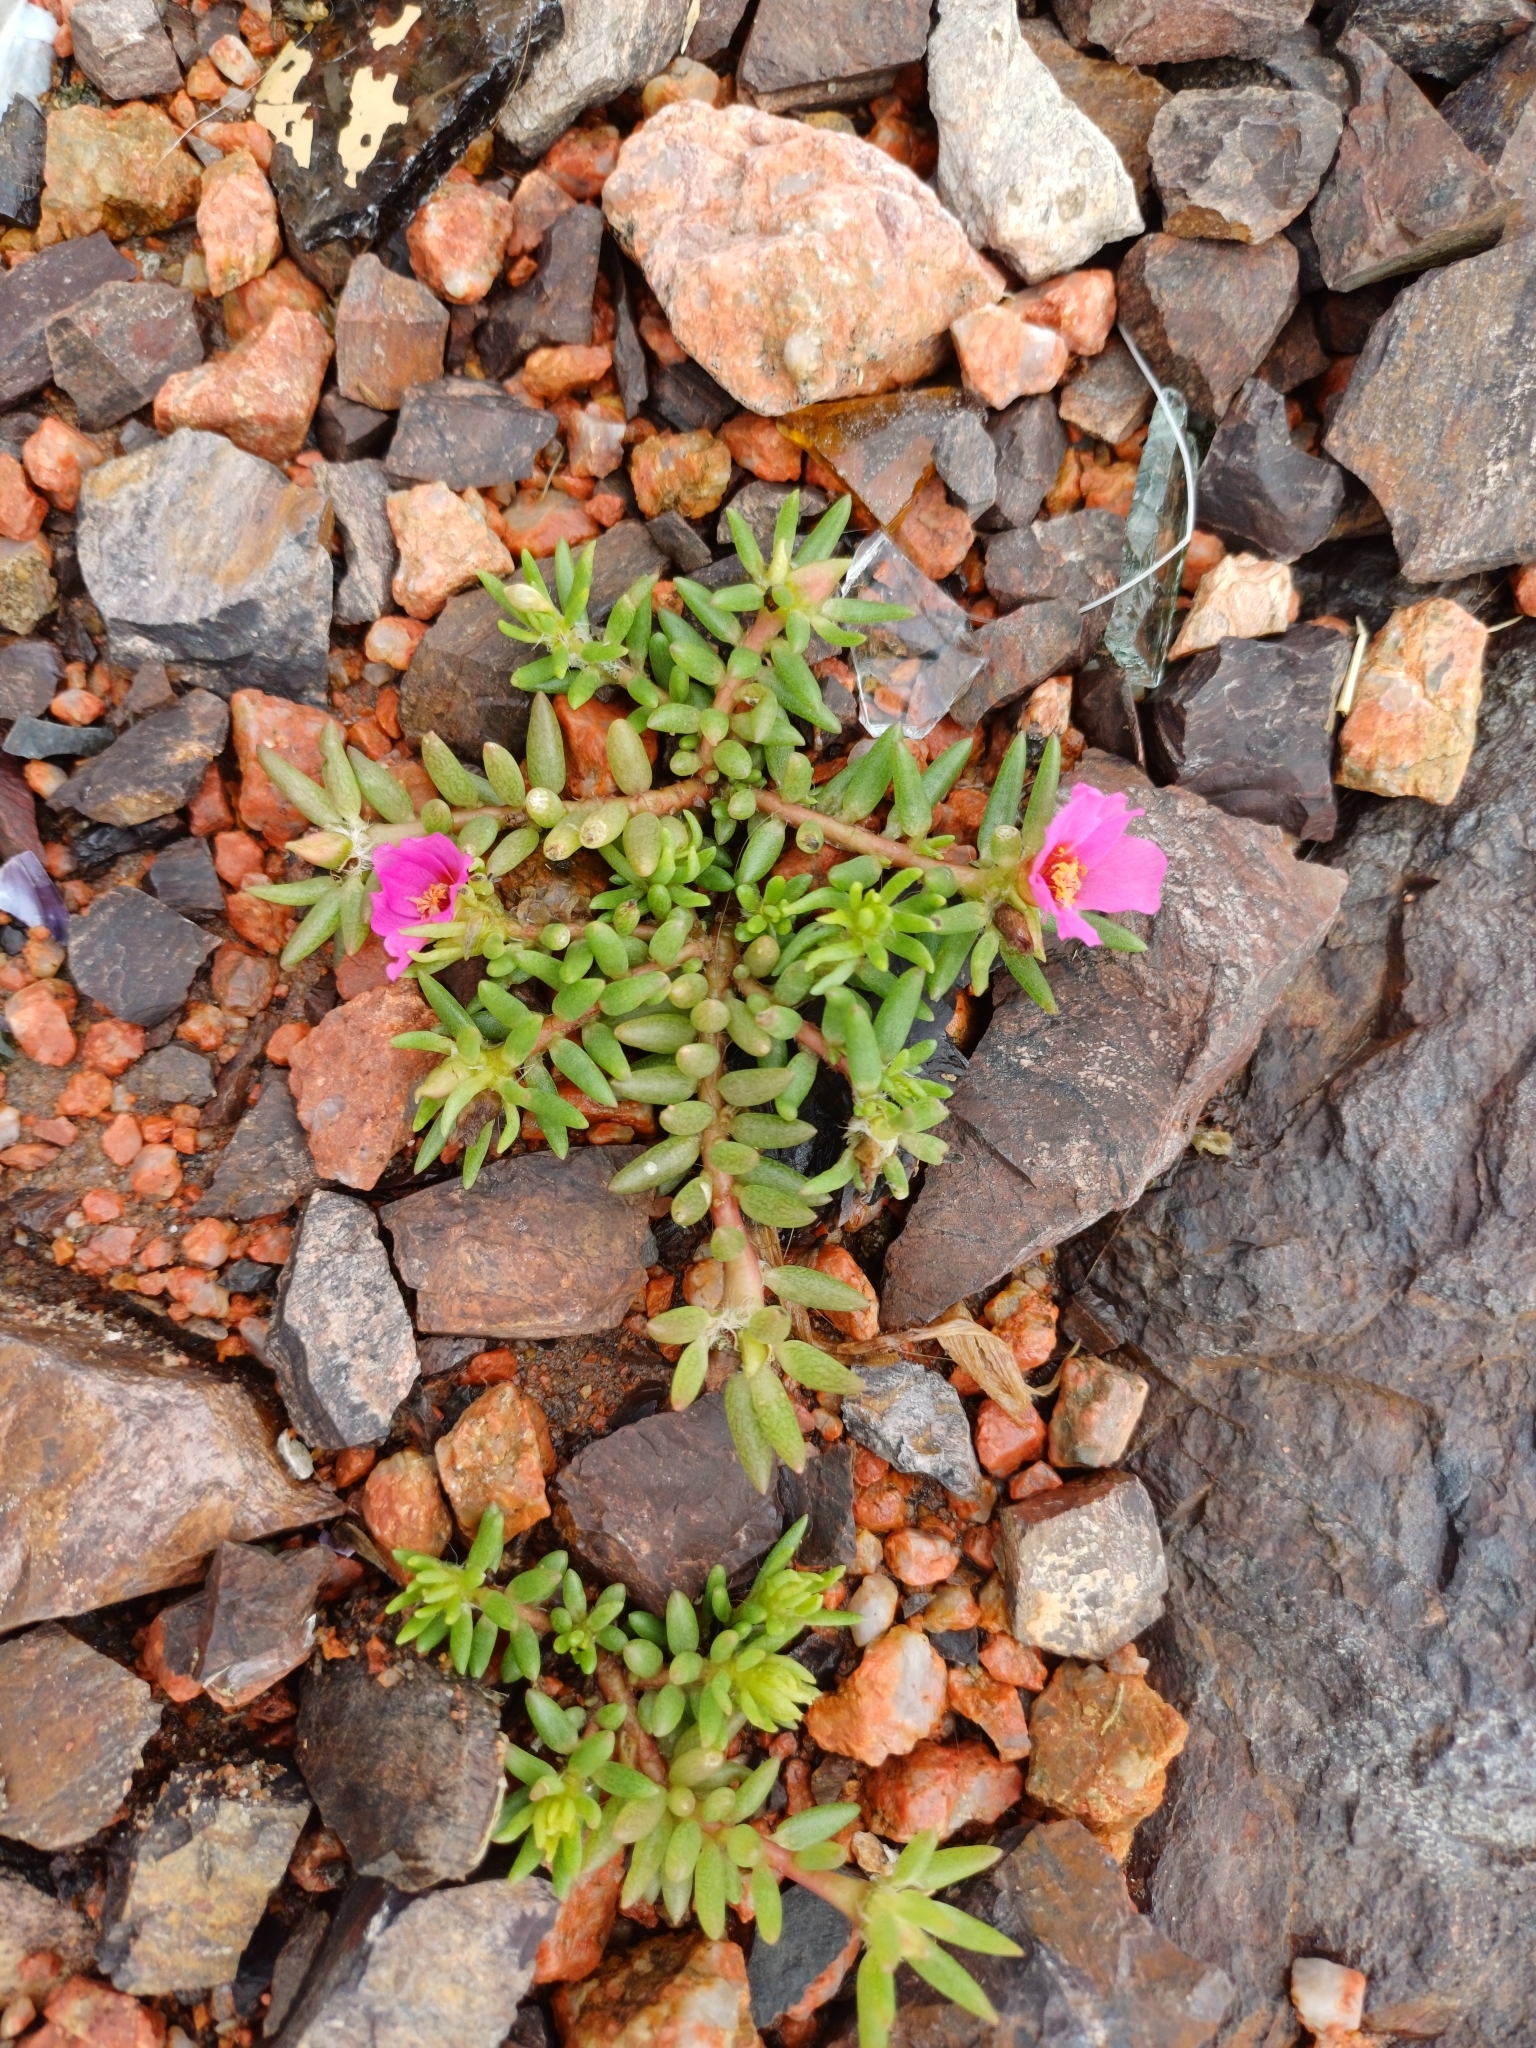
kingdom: Plantae
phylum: Tracheophyta
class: Magnoliopsida
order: Caryophyllales
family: Portulacaceae
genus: Portulaca
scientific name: Portulaca grandiflora
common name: Moss-rose
